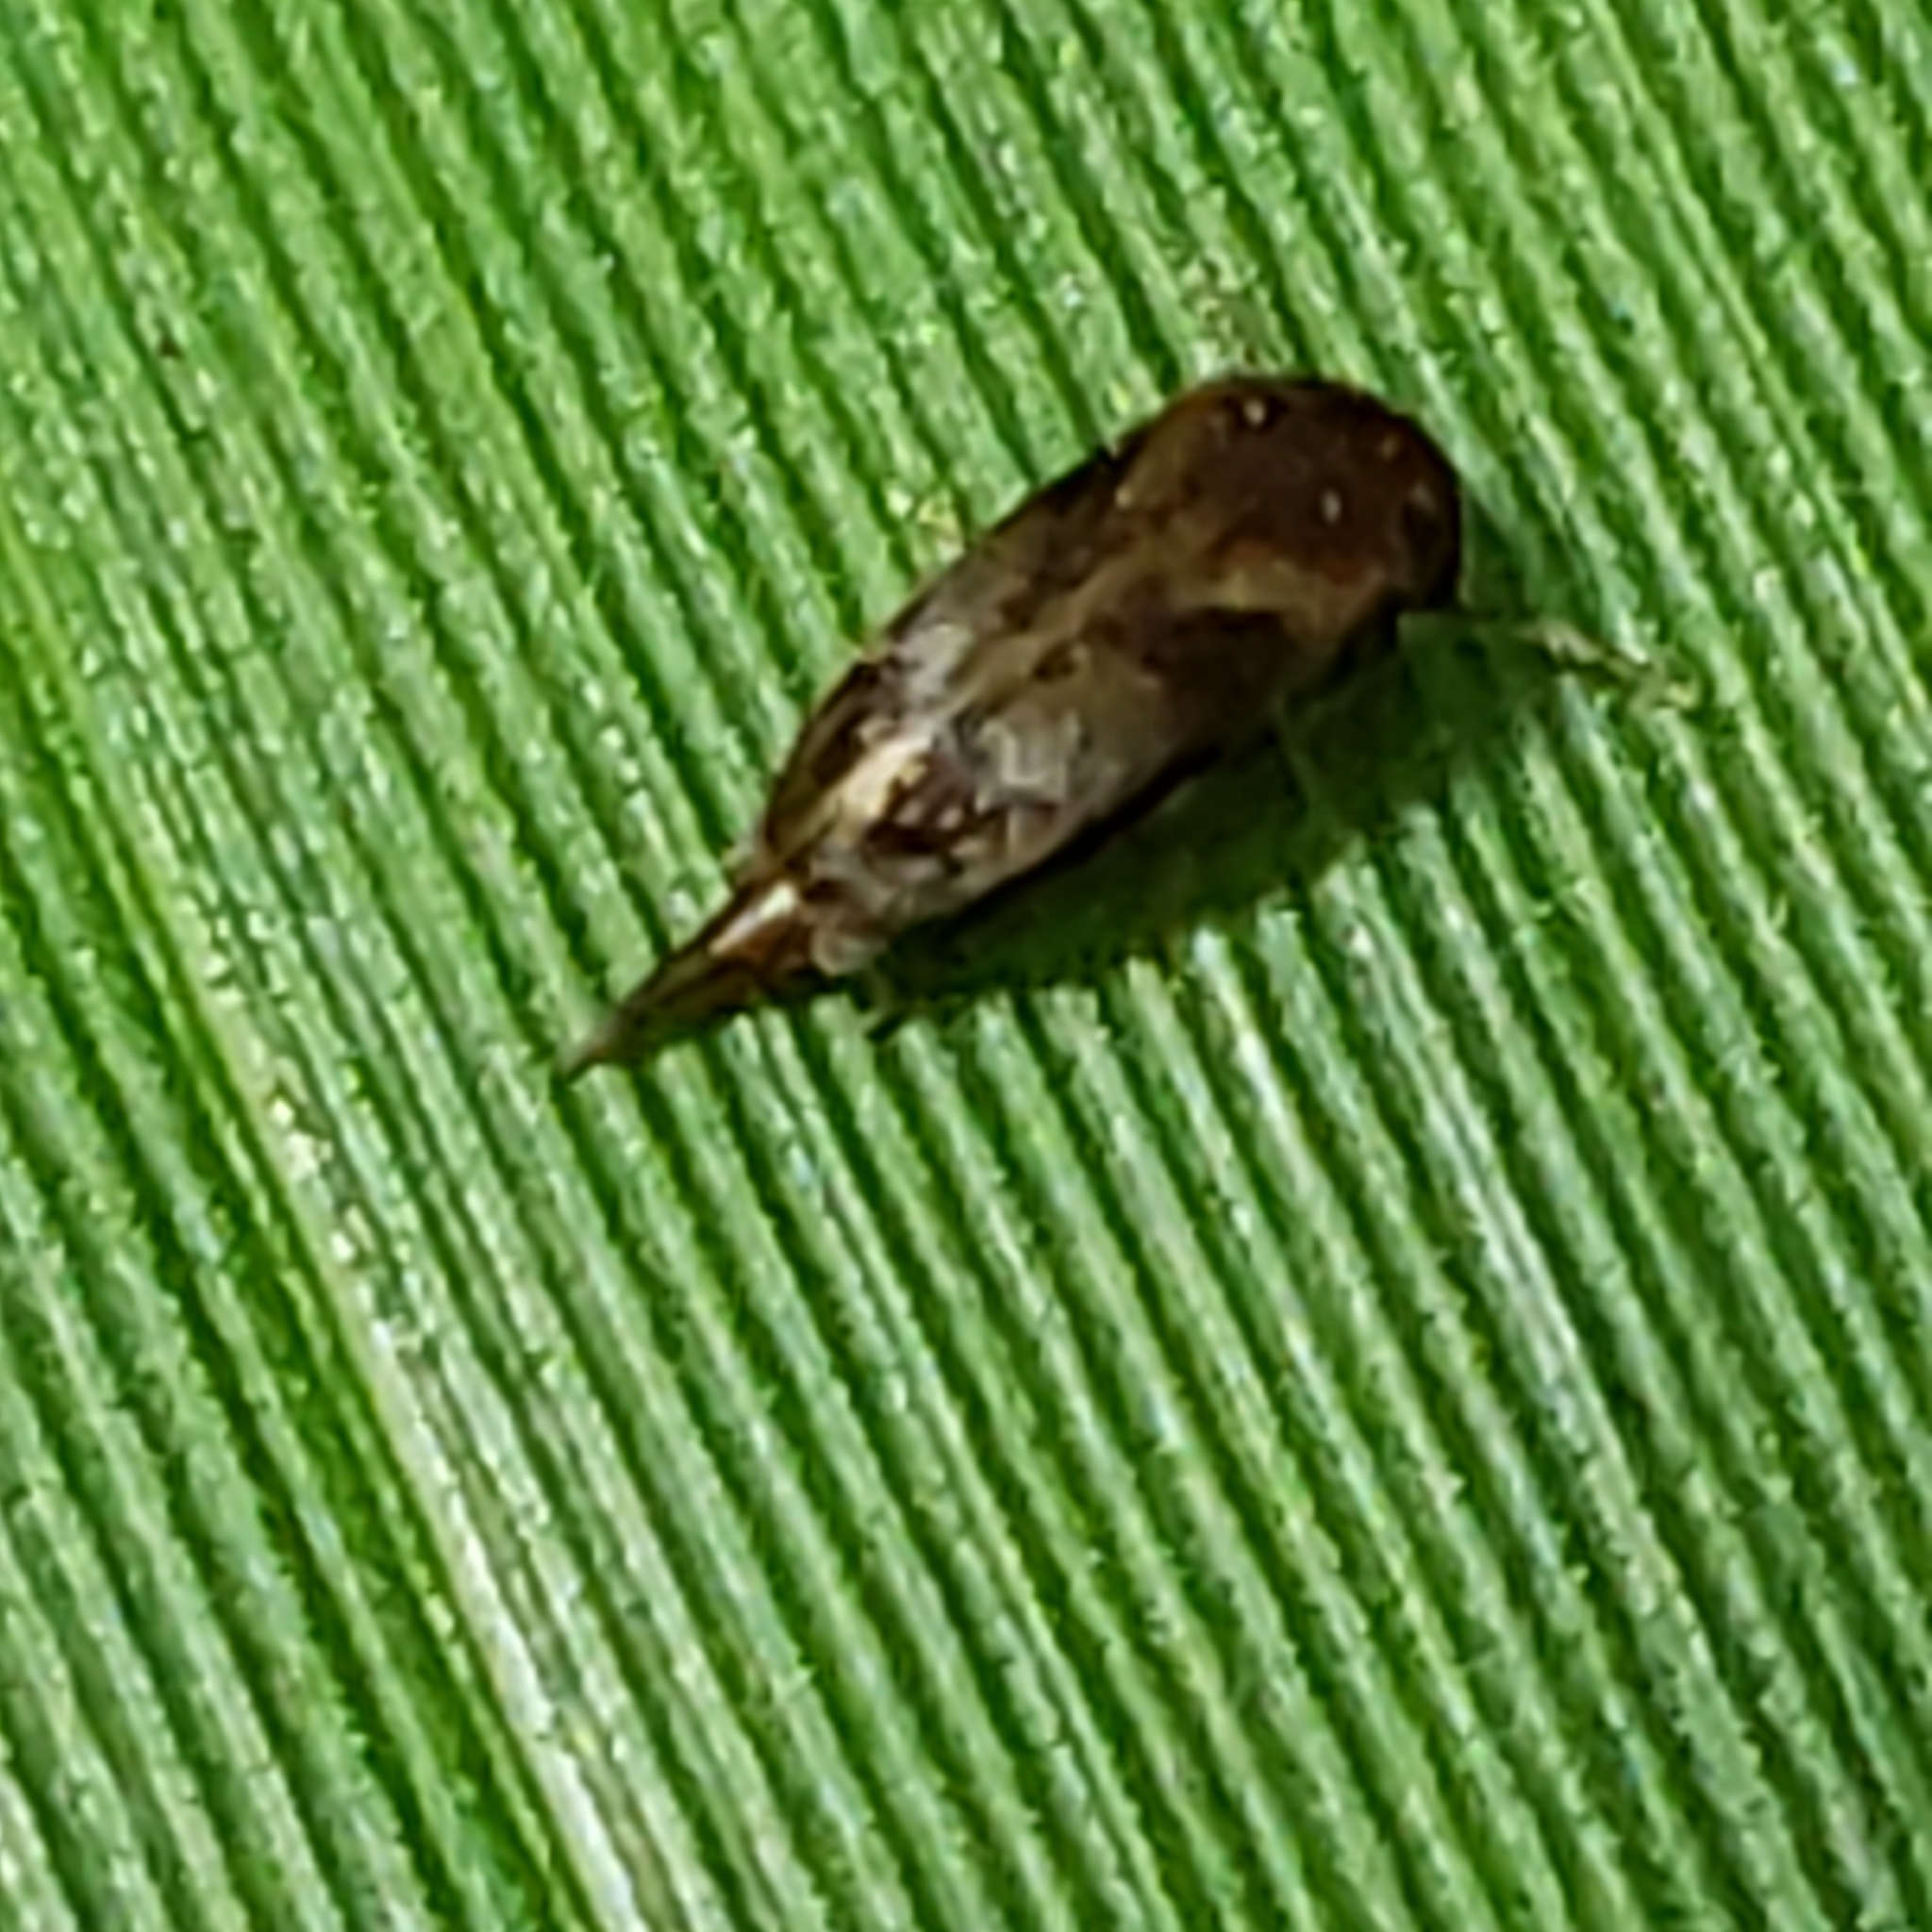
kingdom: Animalia
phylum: Arthropoda
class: Insecta
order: Coleoptera
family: Mordellidae
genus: Mordellistena
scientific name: Mordellistena masoni
